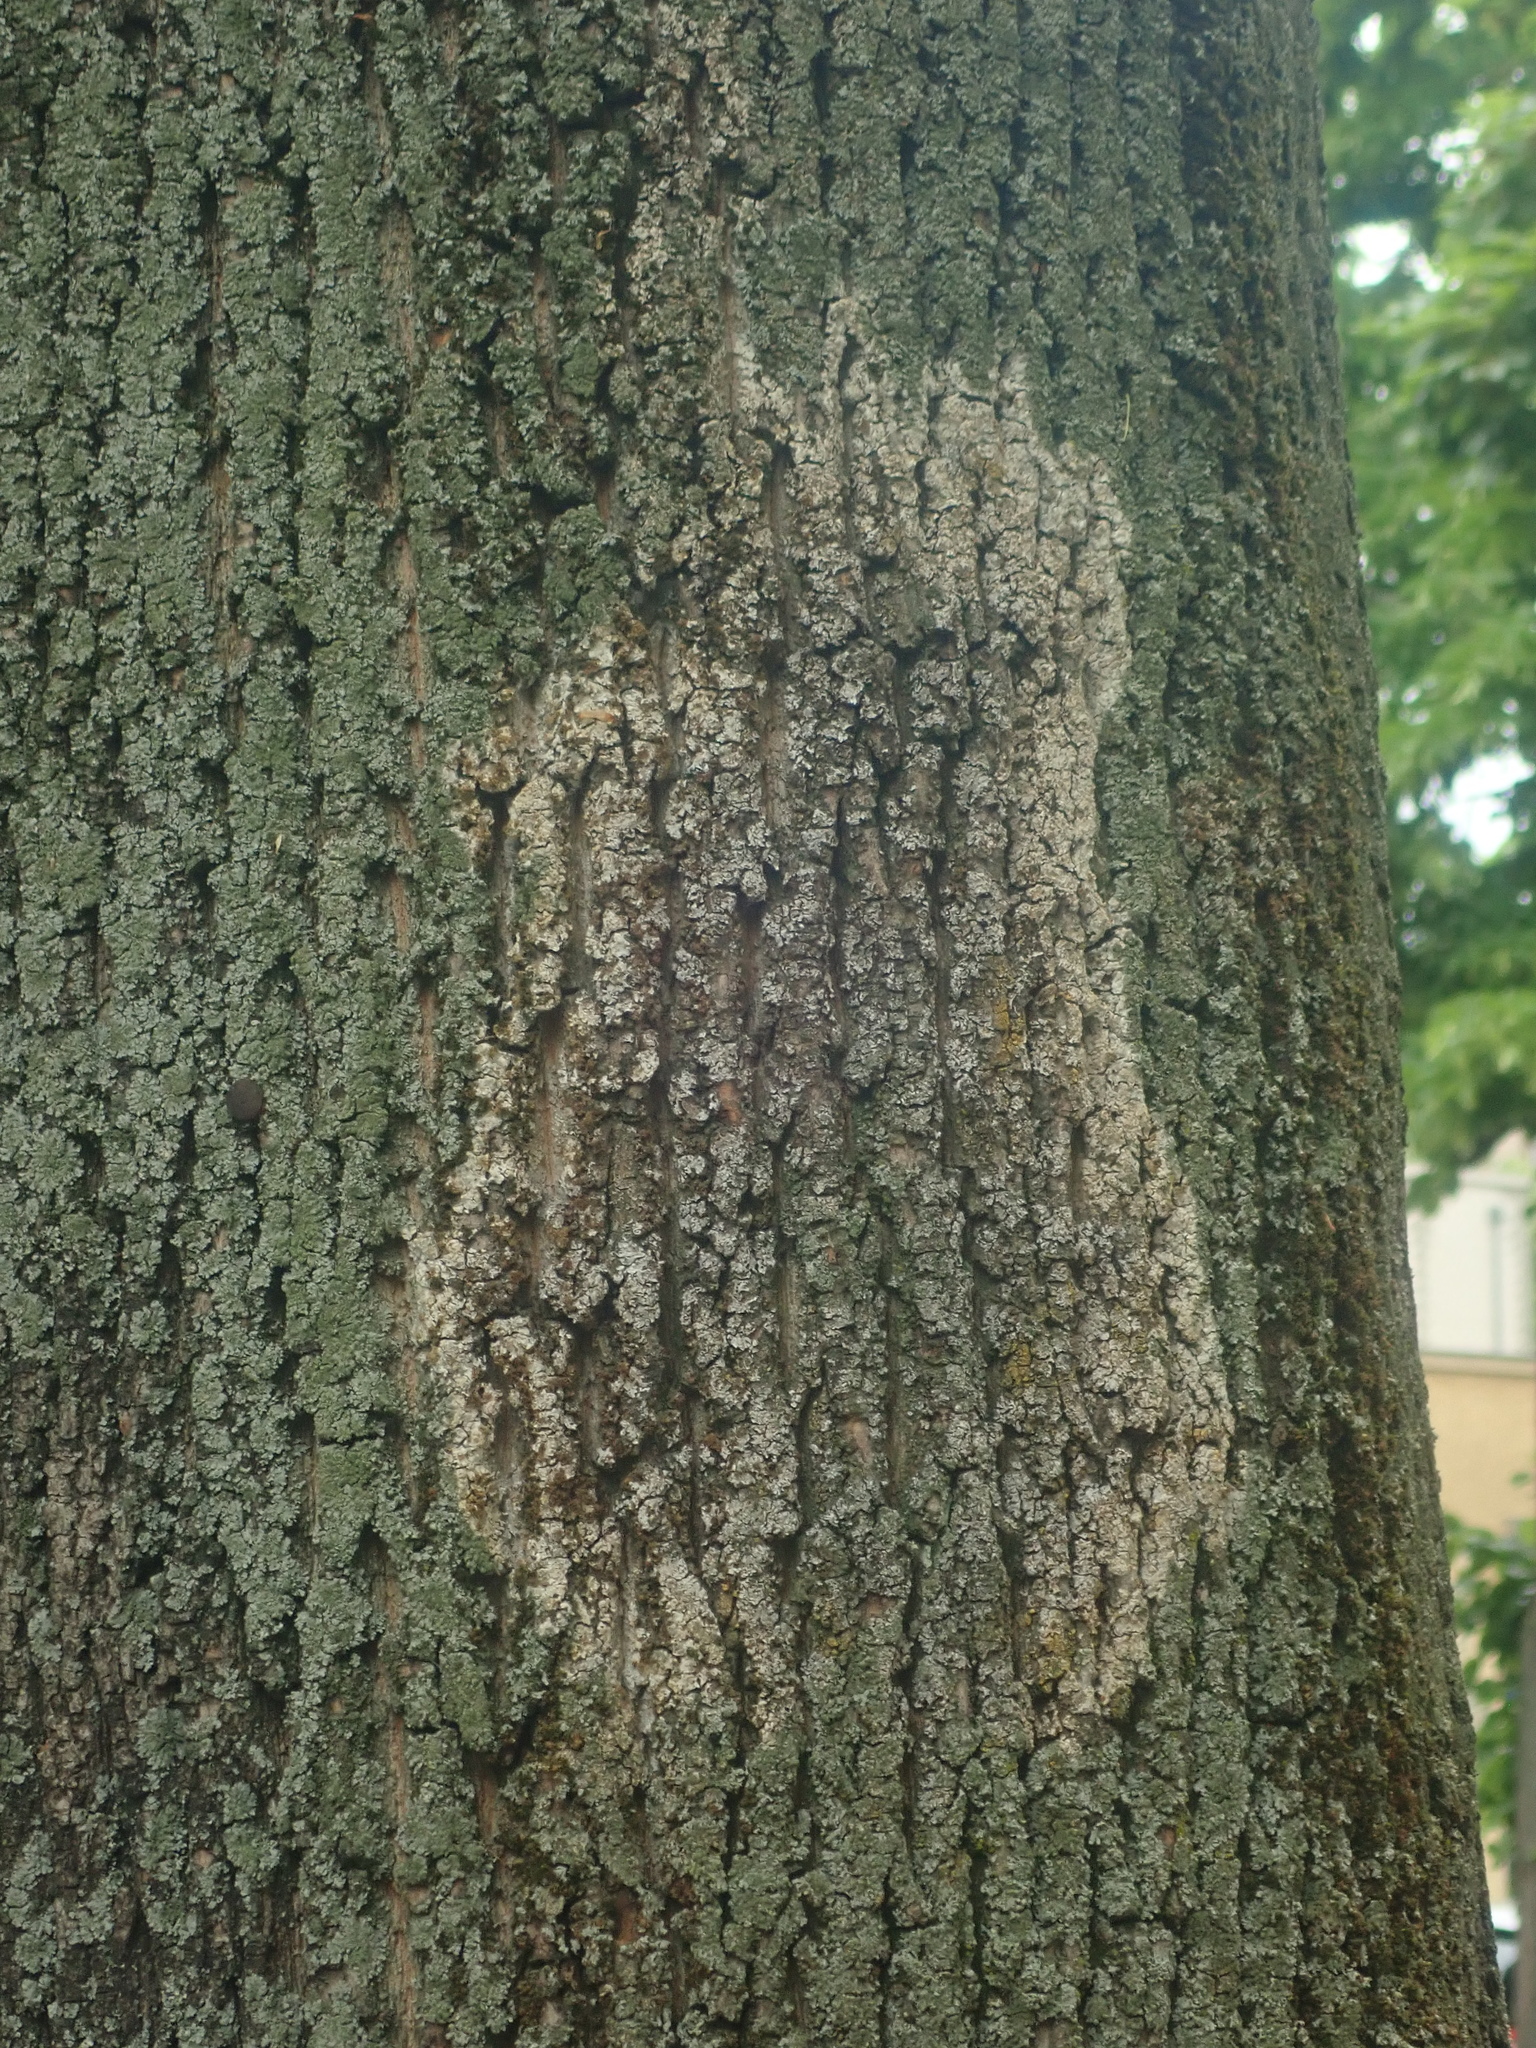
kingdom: Fungi
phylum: Basidiomycota
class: Agaricomycetes
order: Atheliales
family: Atheliaceae
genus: Athelia
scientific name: Athelia arachnoidea
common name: Candelabra duster
